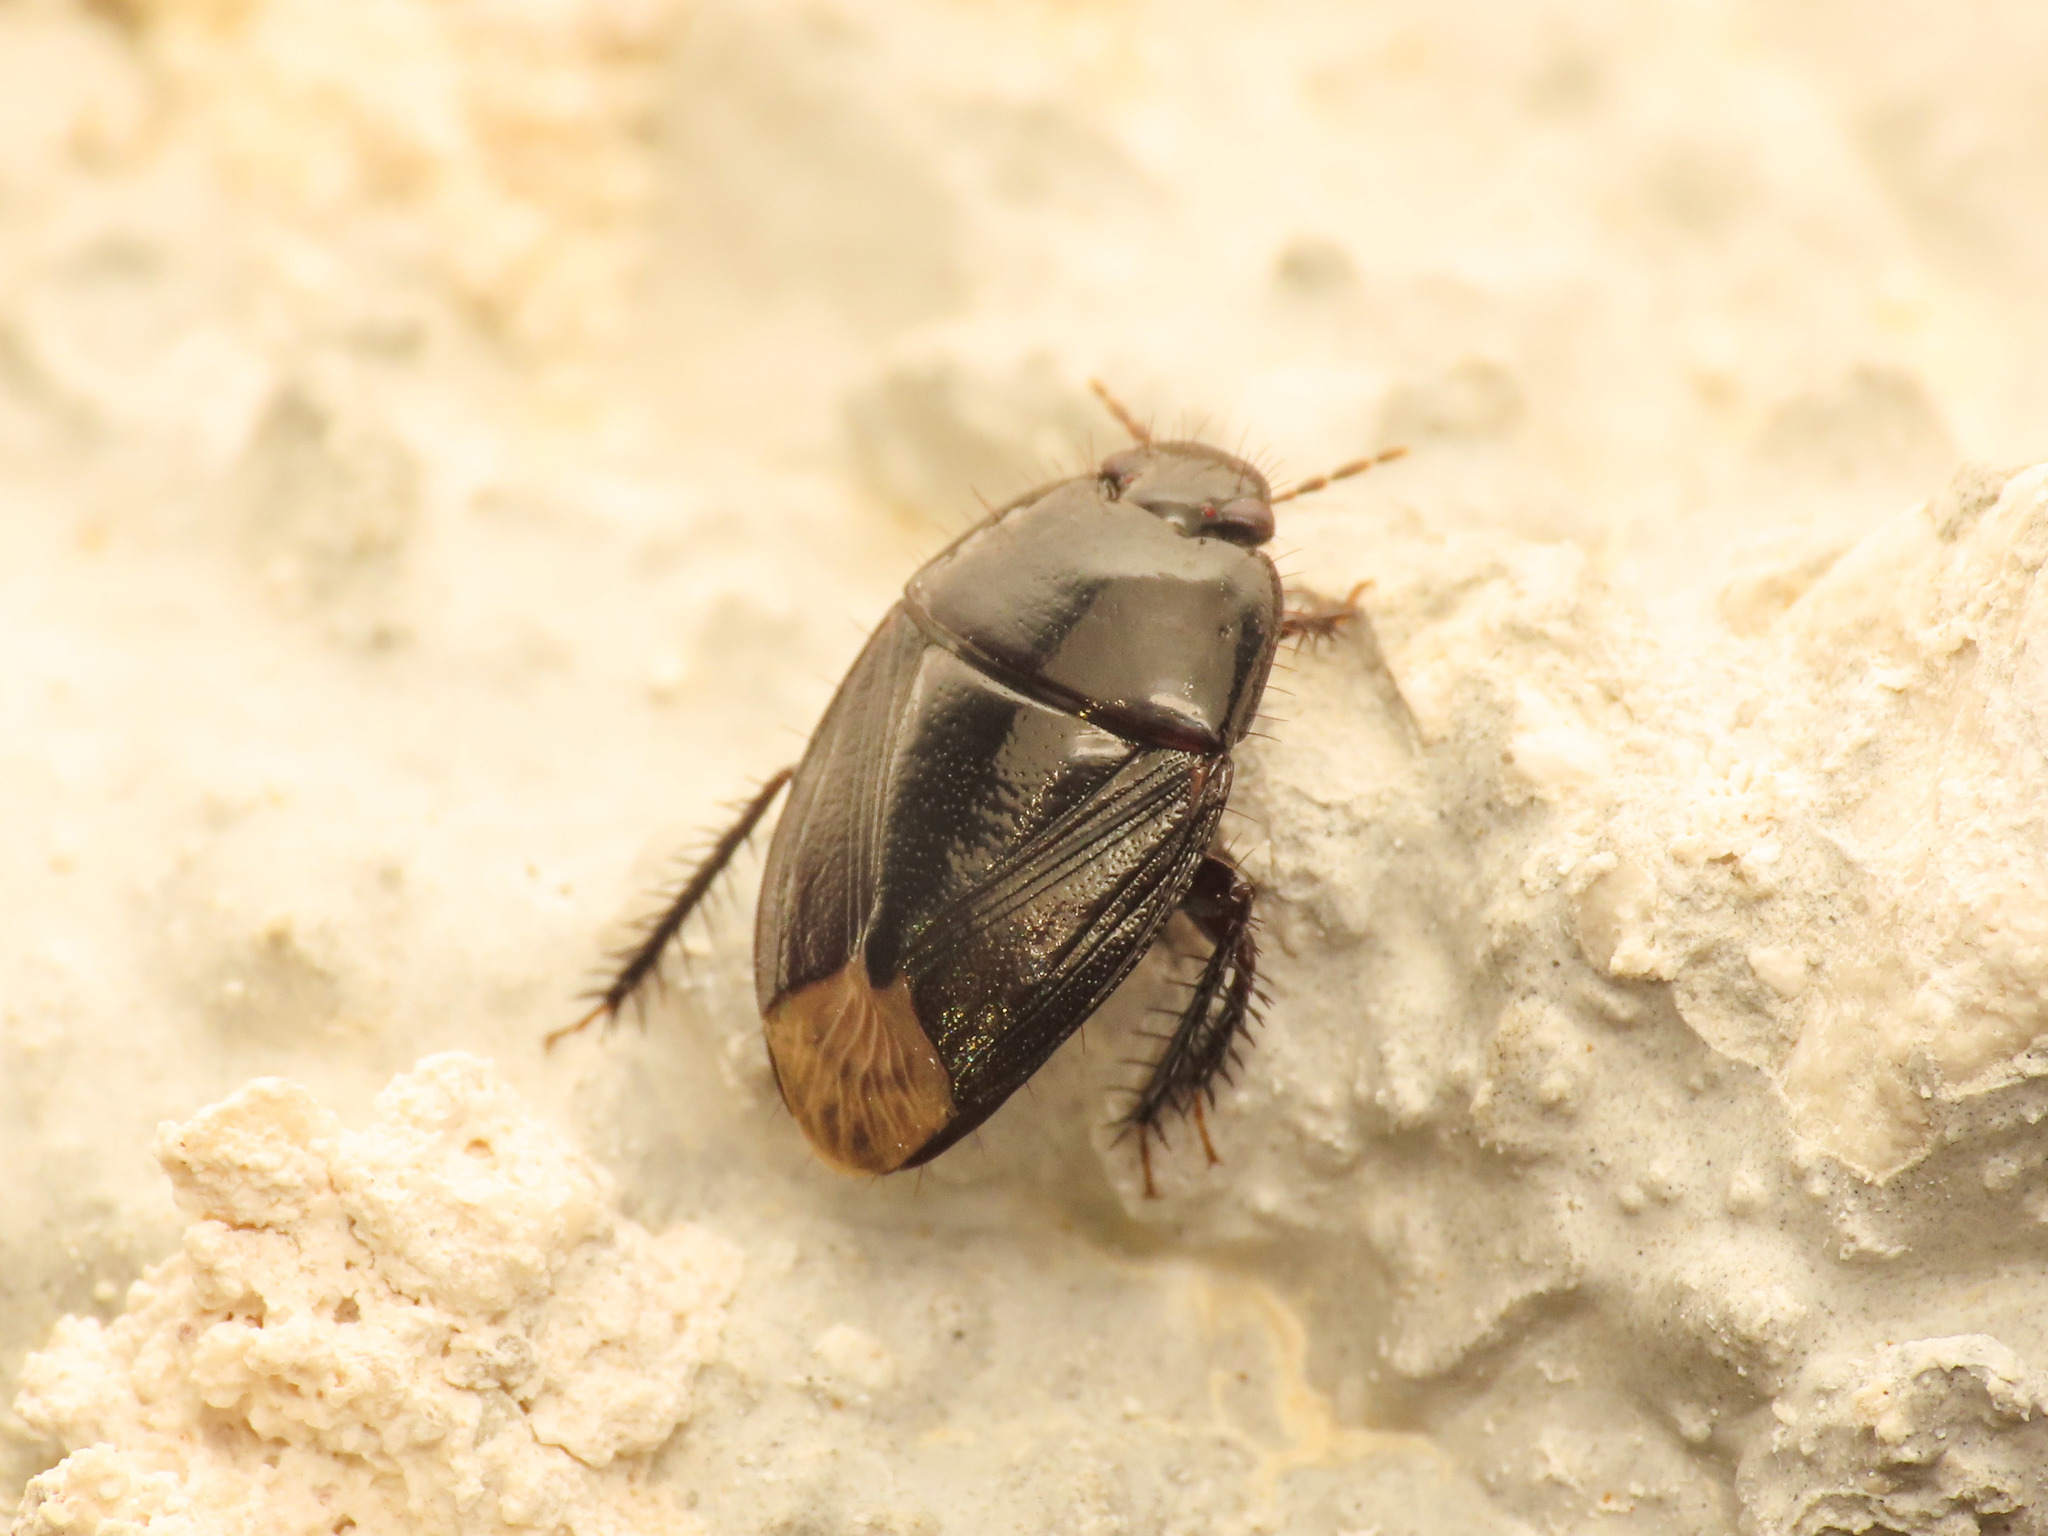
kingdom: Animalia
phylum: Arthropoda
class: Insecta
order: Hemiptera
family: Cydnidae
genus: Macroscytus
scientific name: Macroscytus brunneus
